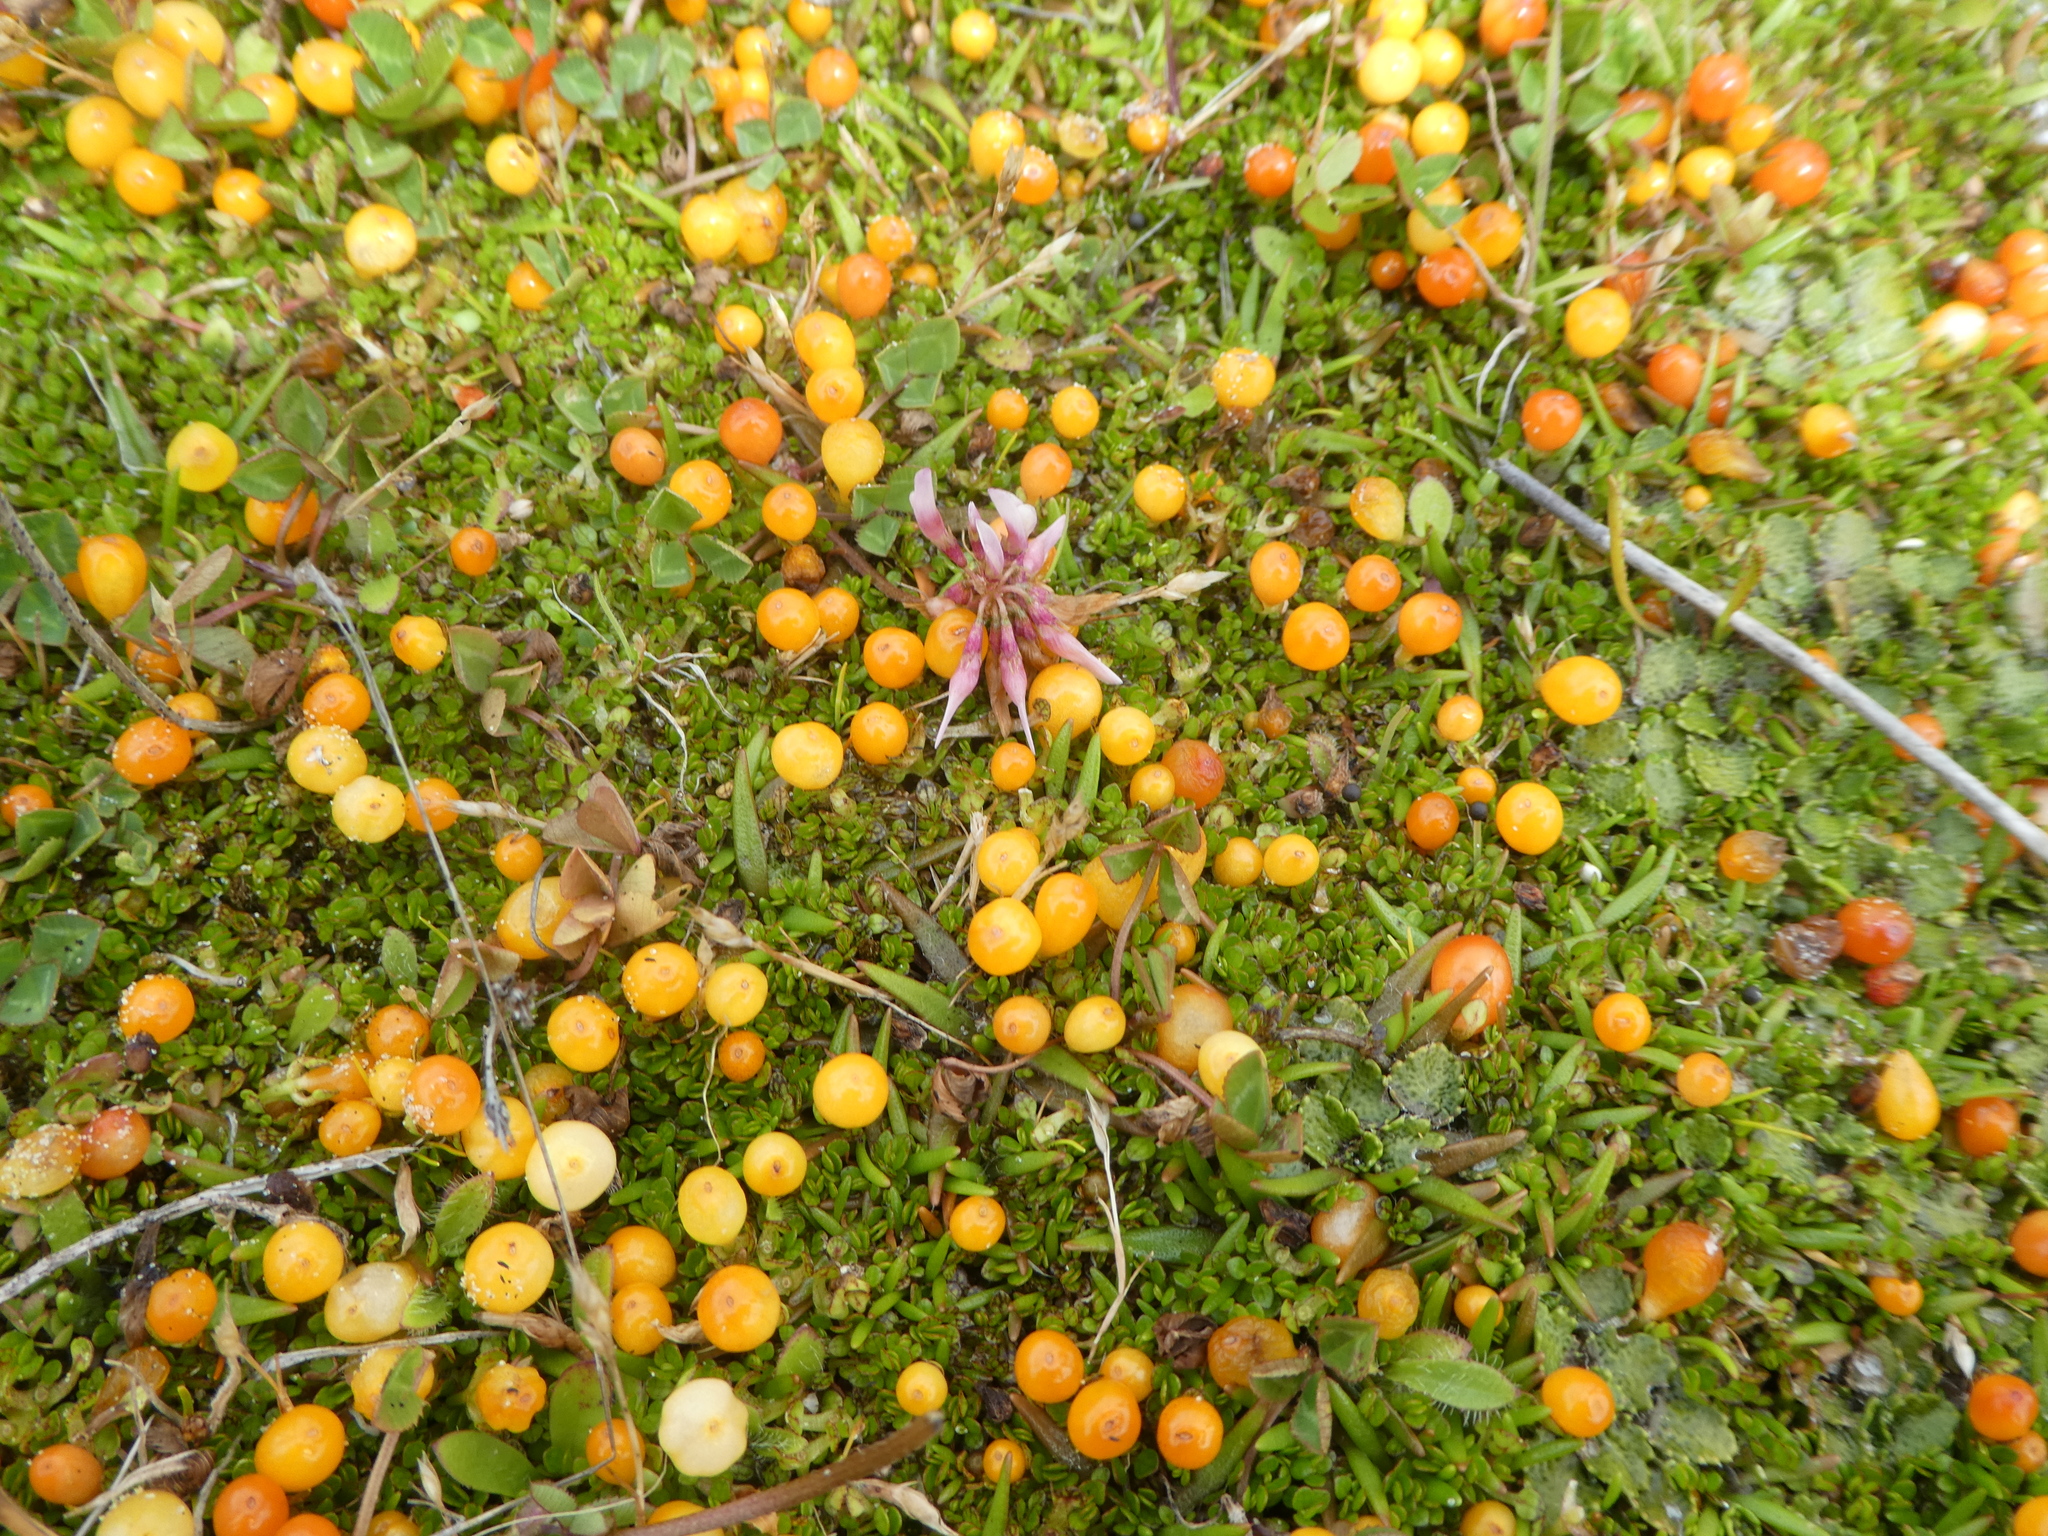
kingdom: Plantae
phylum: Tracheophyta
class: Magnoliopsida
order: Gentianales
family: Rubiaceae
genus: Nertera
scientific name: Nertera balfouriana
